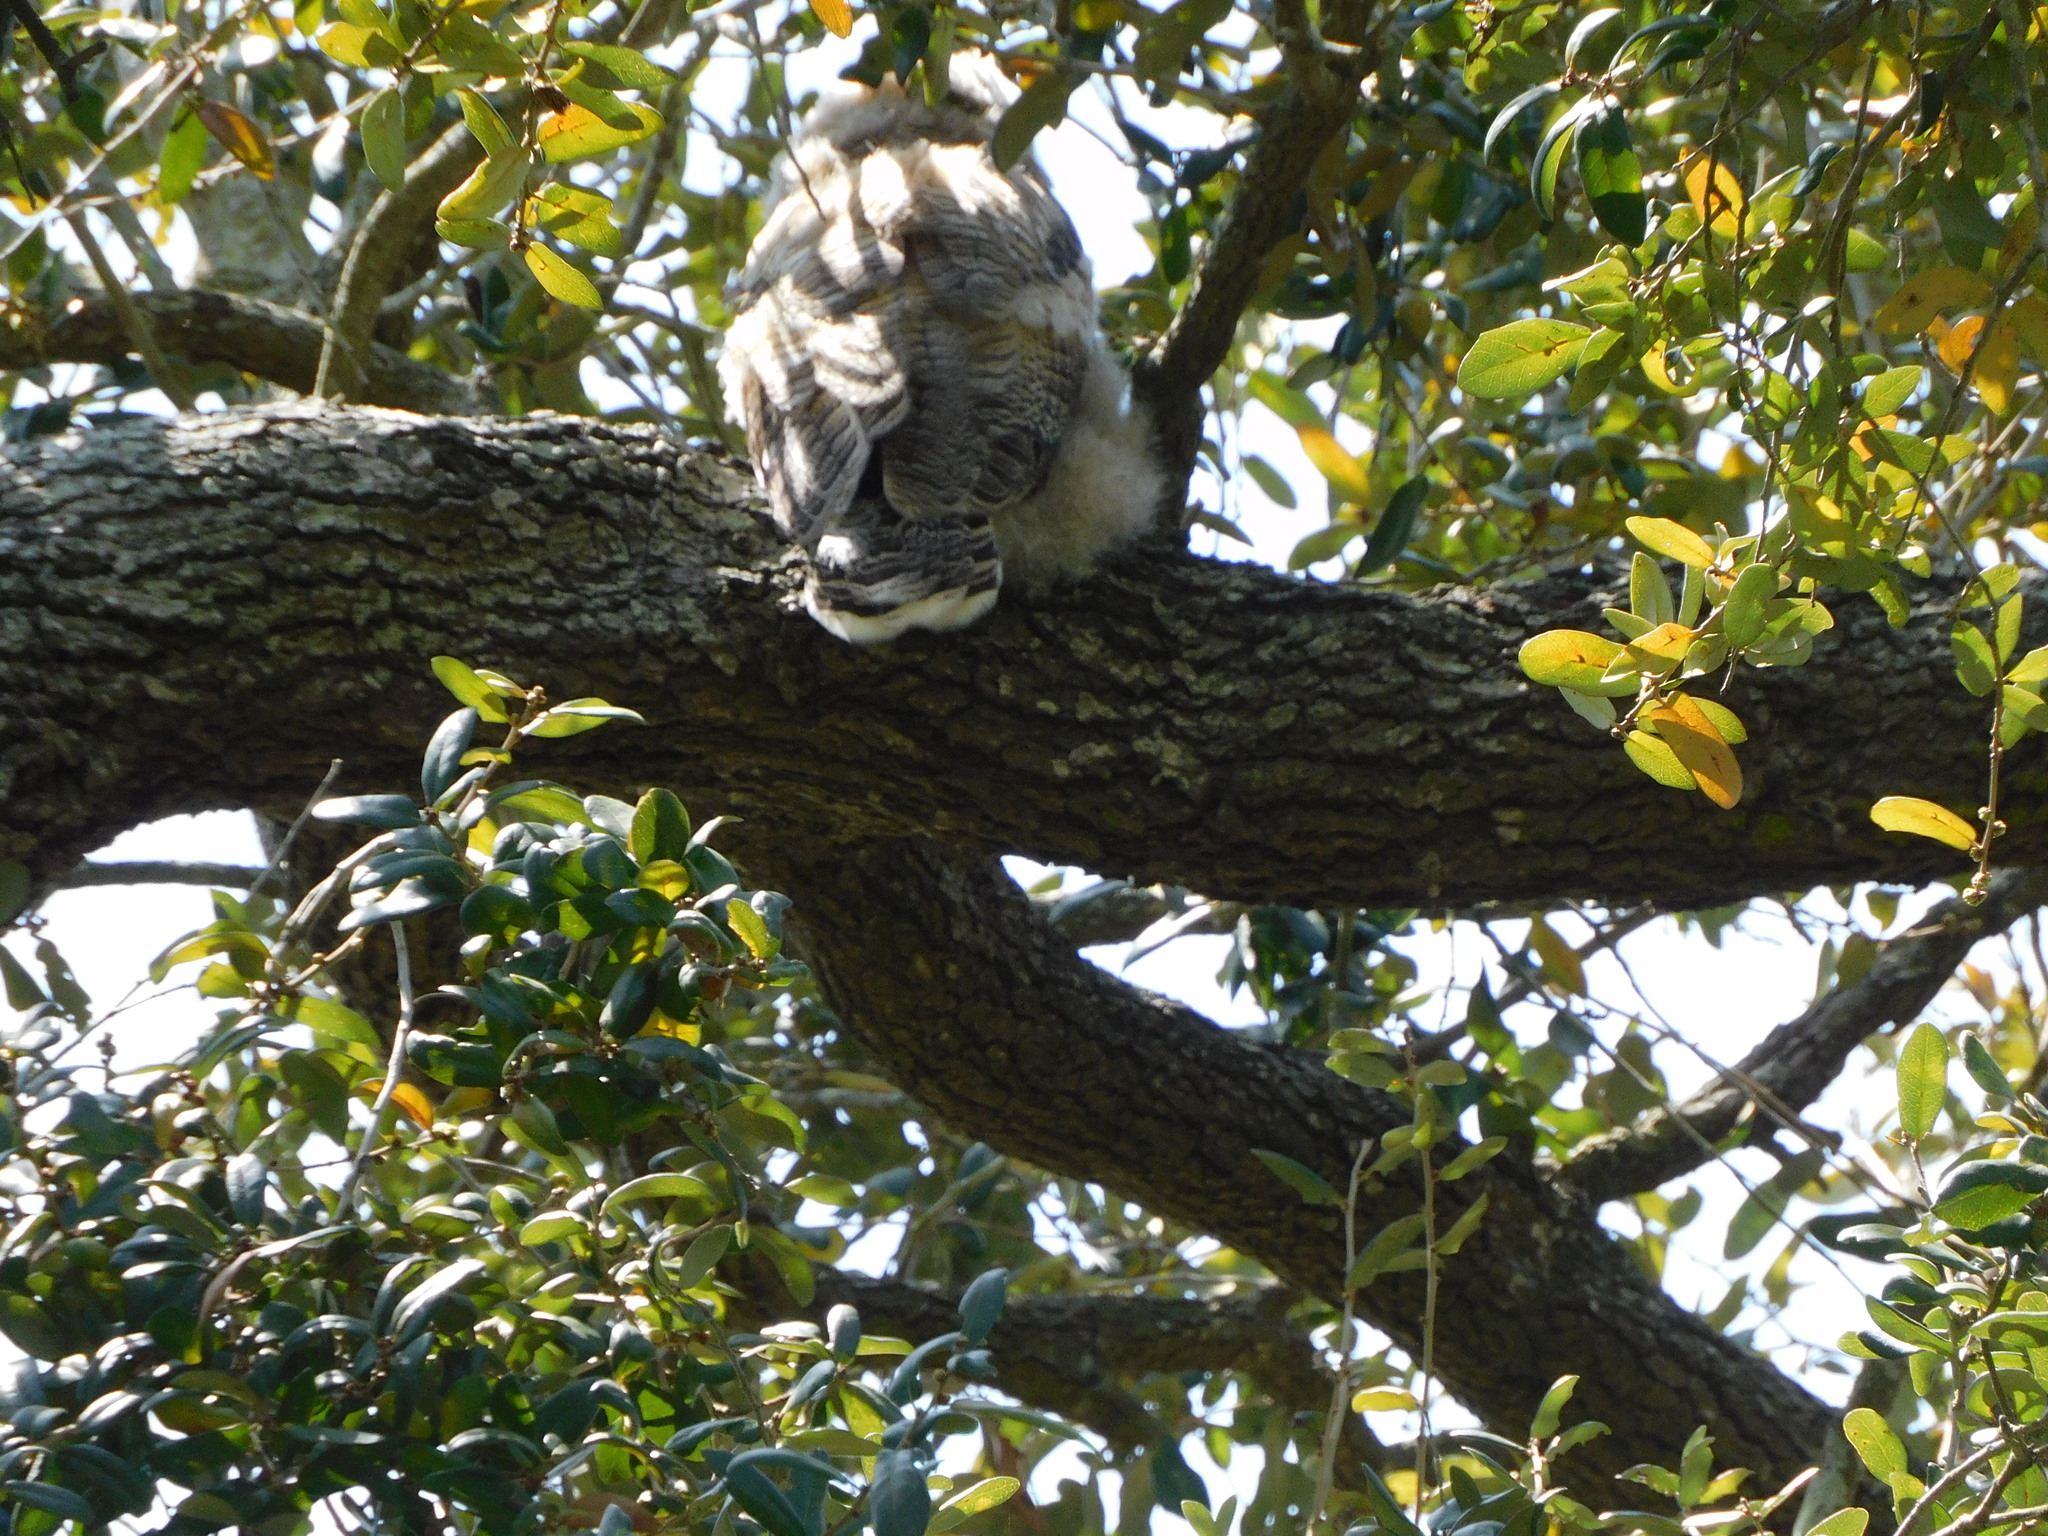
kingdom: Animalia
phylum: Chordata
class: Aves
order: Strigiformes
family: Strigidae
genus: Bubo
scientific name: Bubo virginianus
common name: Great horned owl
